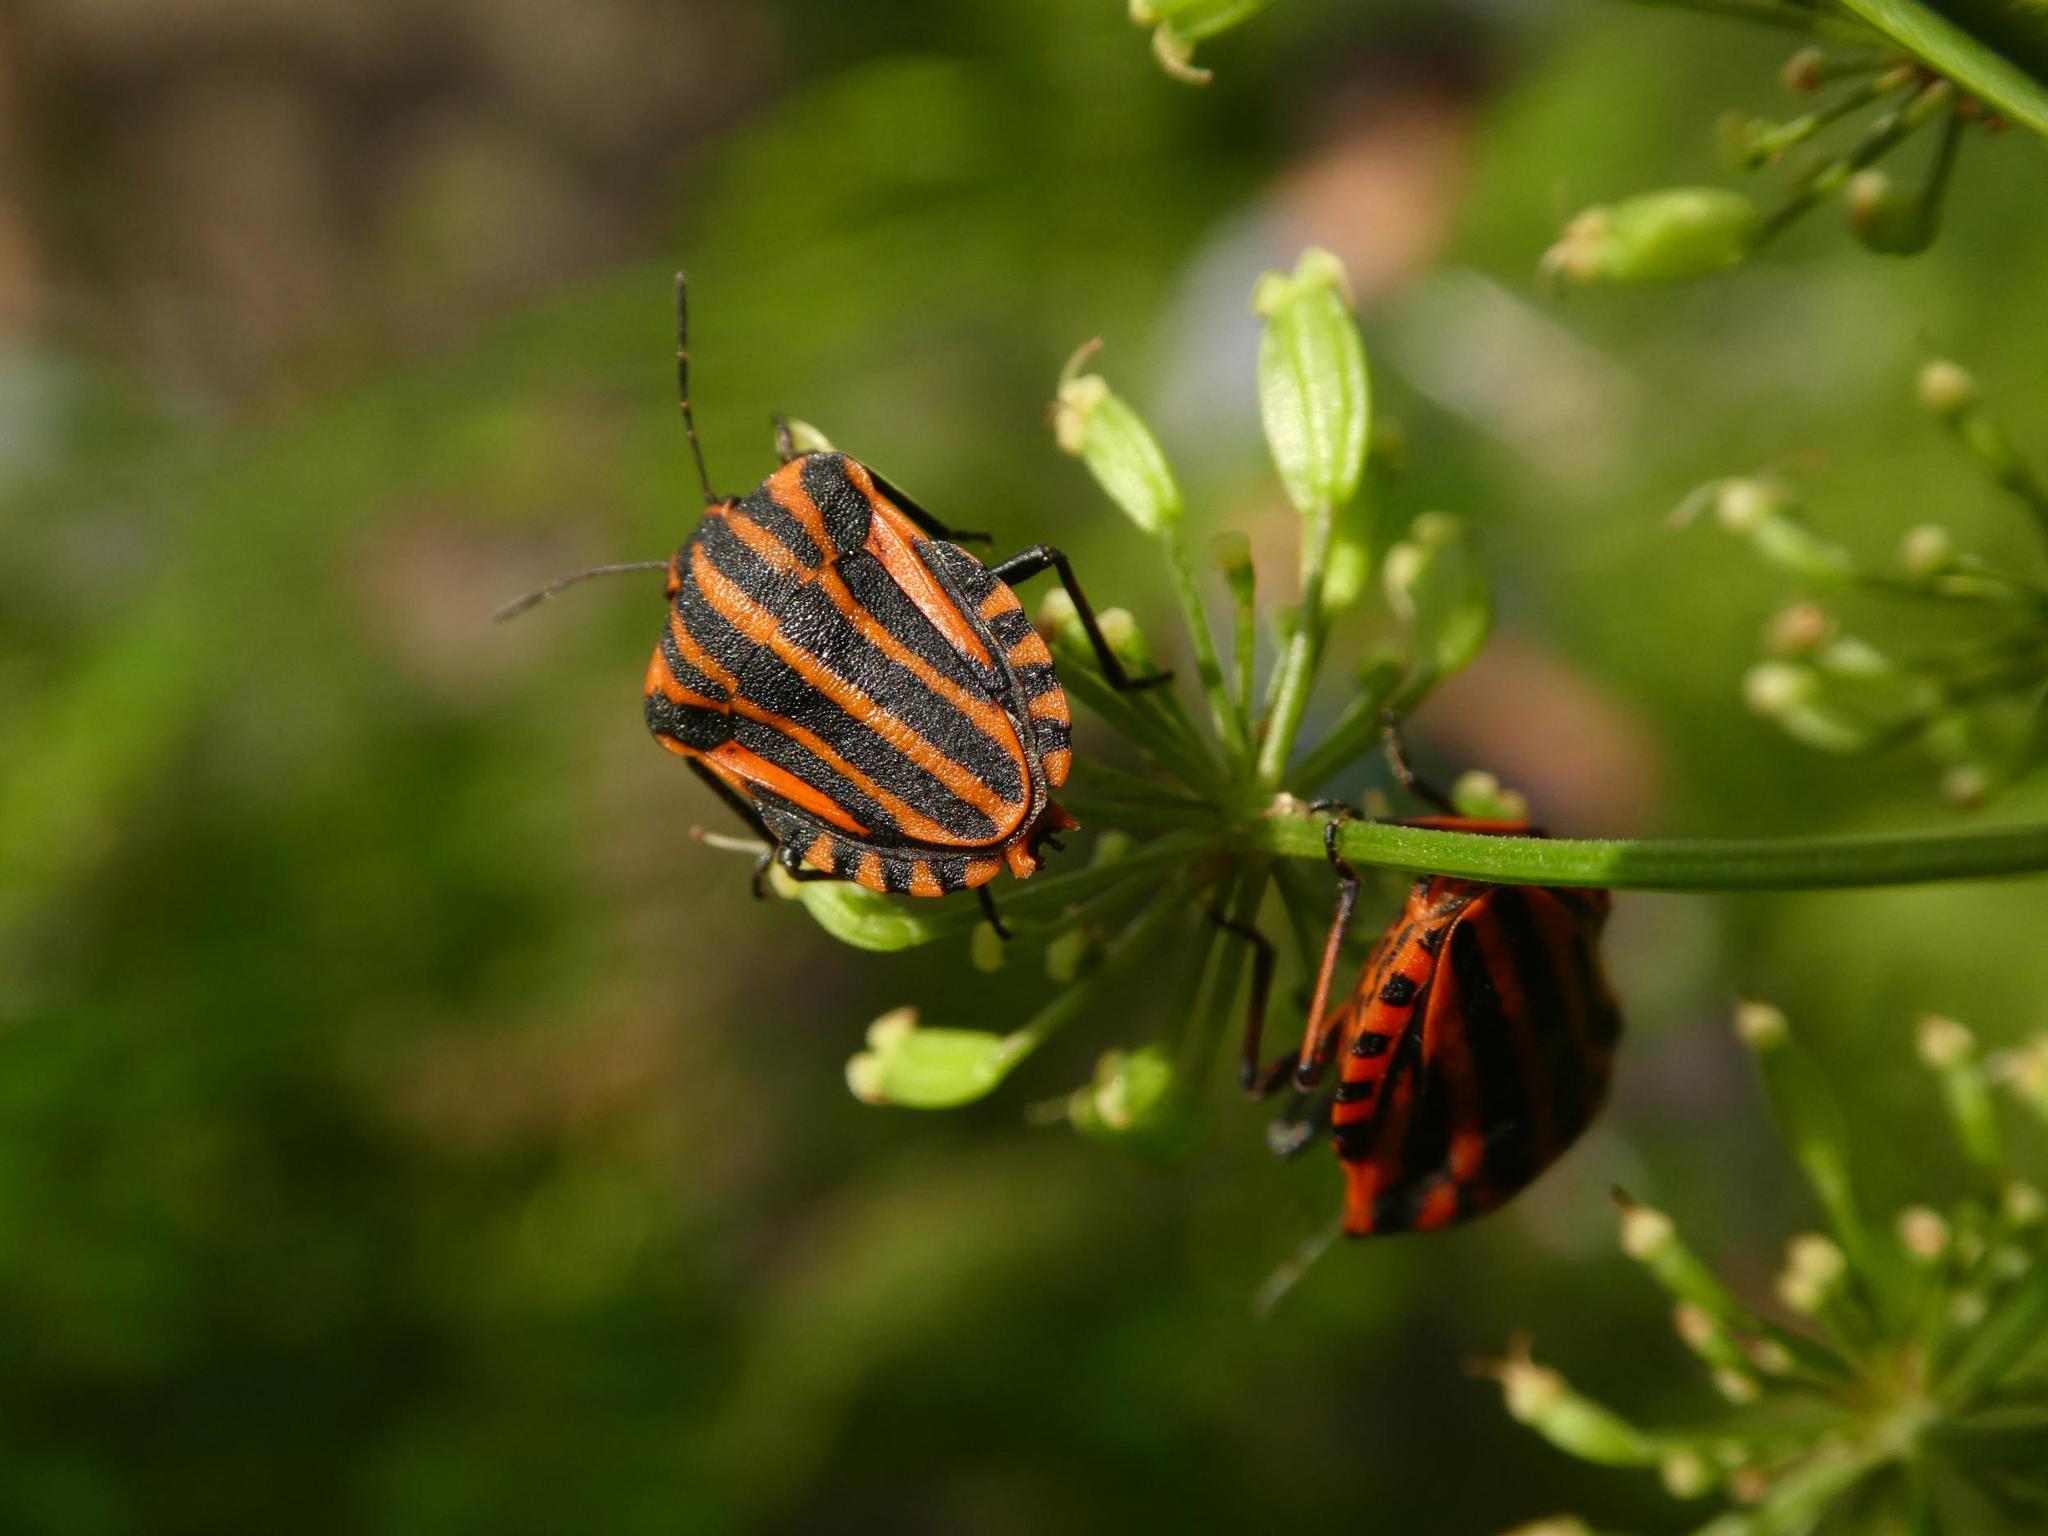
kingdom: Animalia
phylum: Arthropoda
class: Insecta
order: Hemiptera
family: Pentatomidae
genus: Graphosoma
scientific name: Graphosoma italicum
